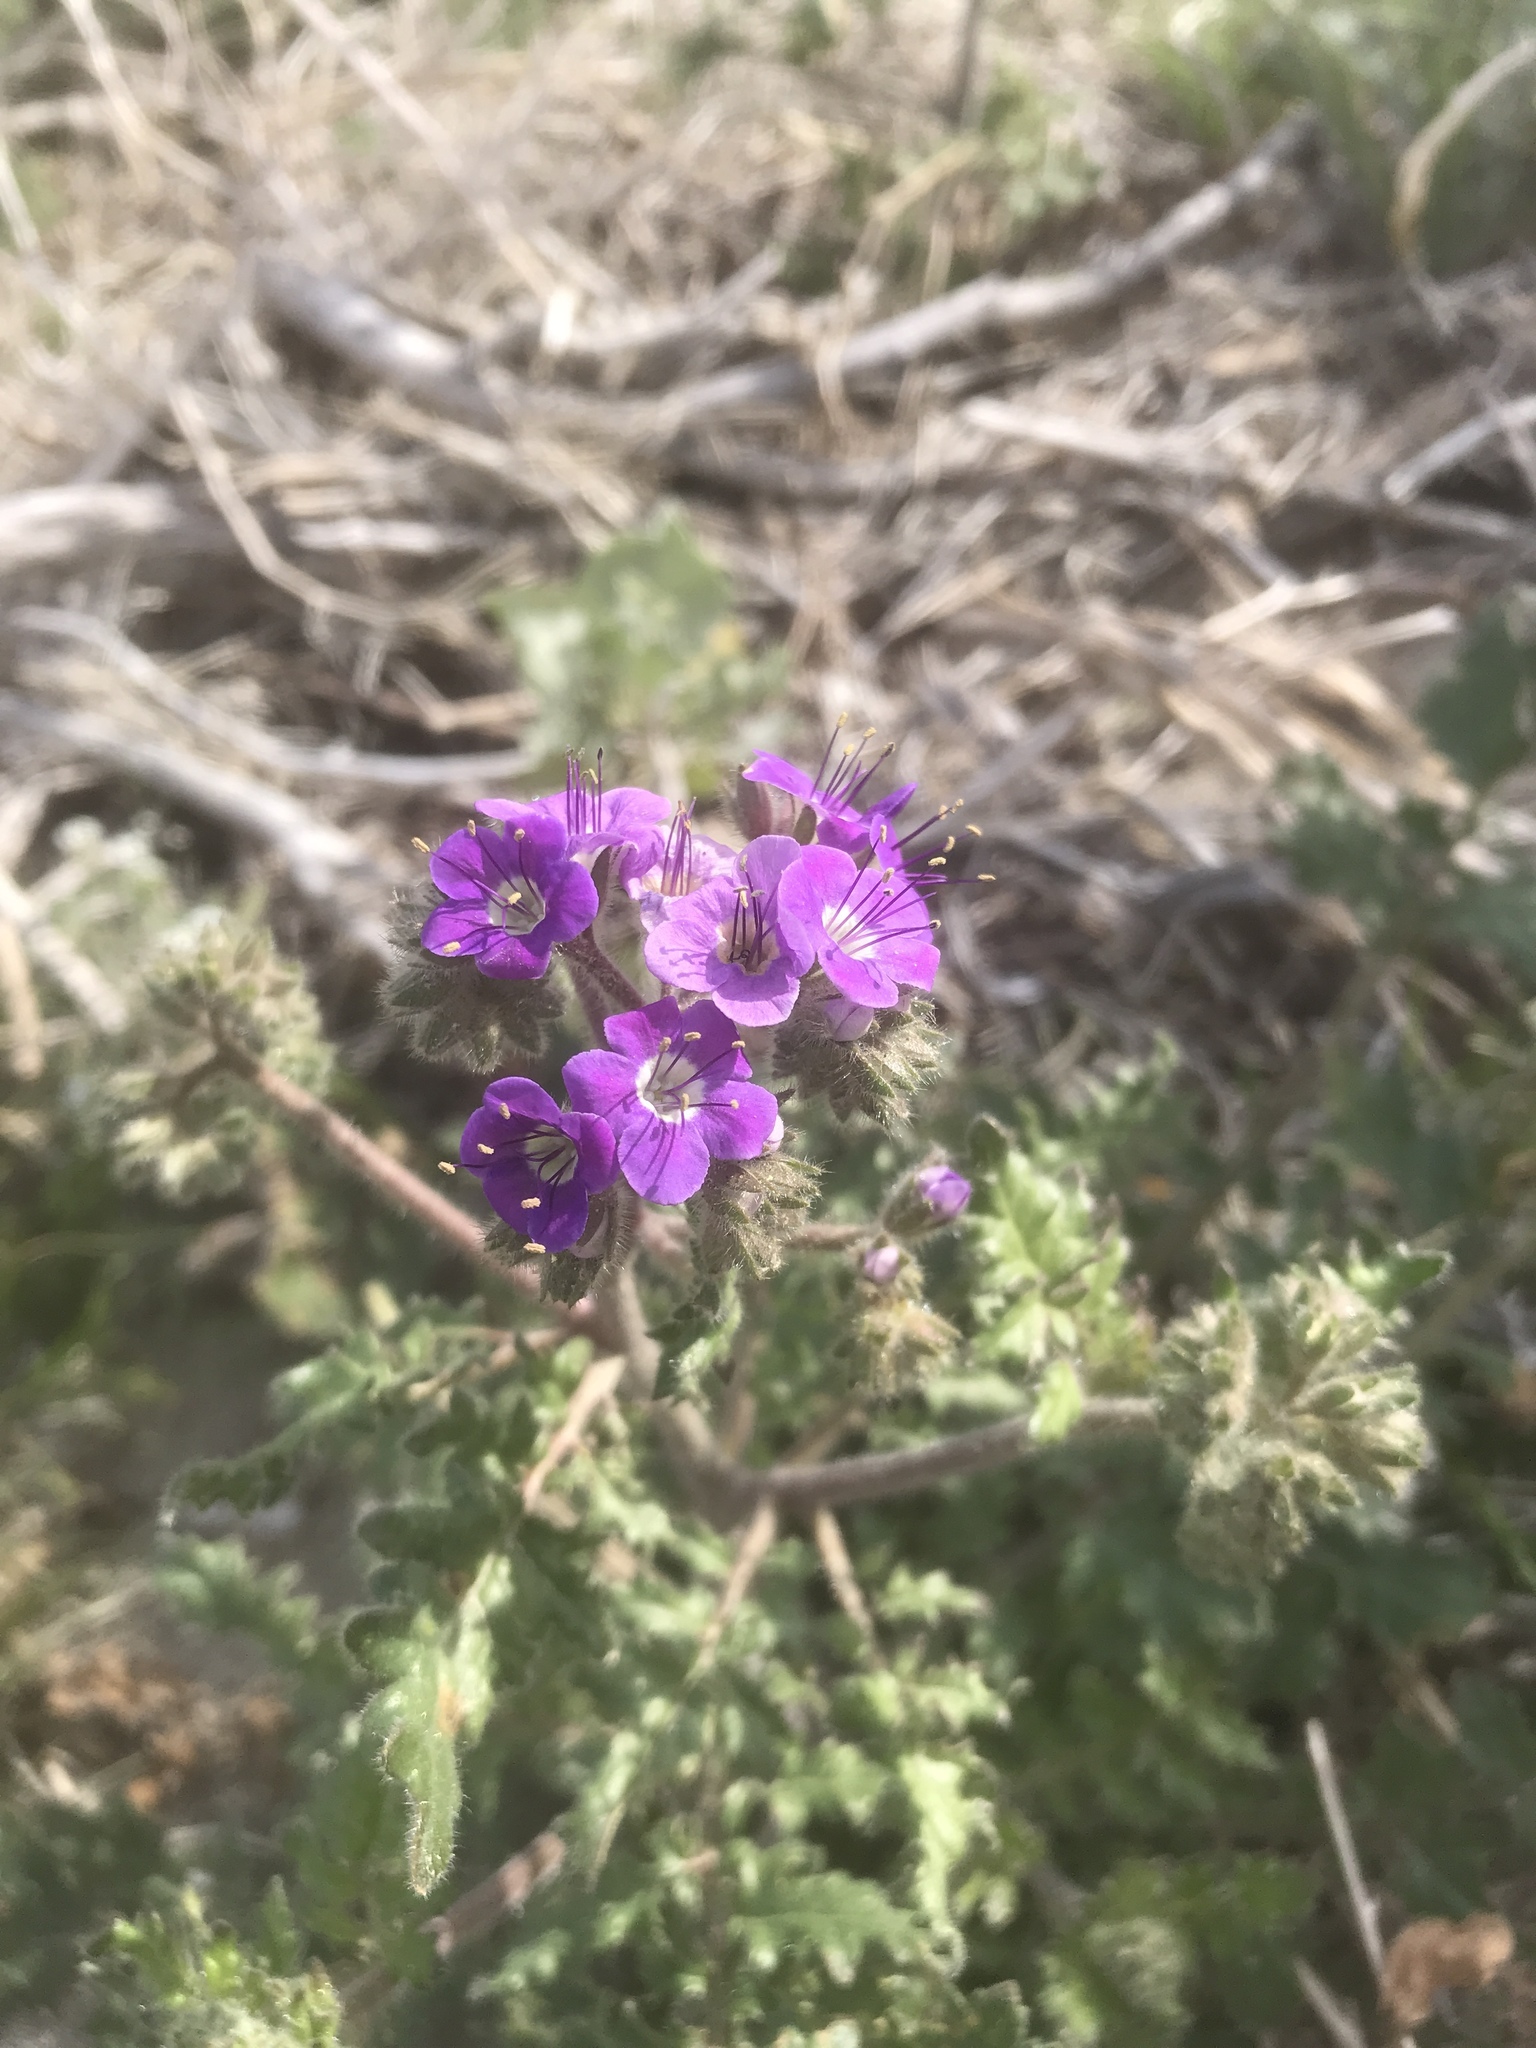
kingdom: Plantae
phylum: Tracheophyta
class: Magnoliopsida
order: Boraginales
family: Hydrophyllaceae
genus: Phacelia
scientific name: Phacelia crenulata
